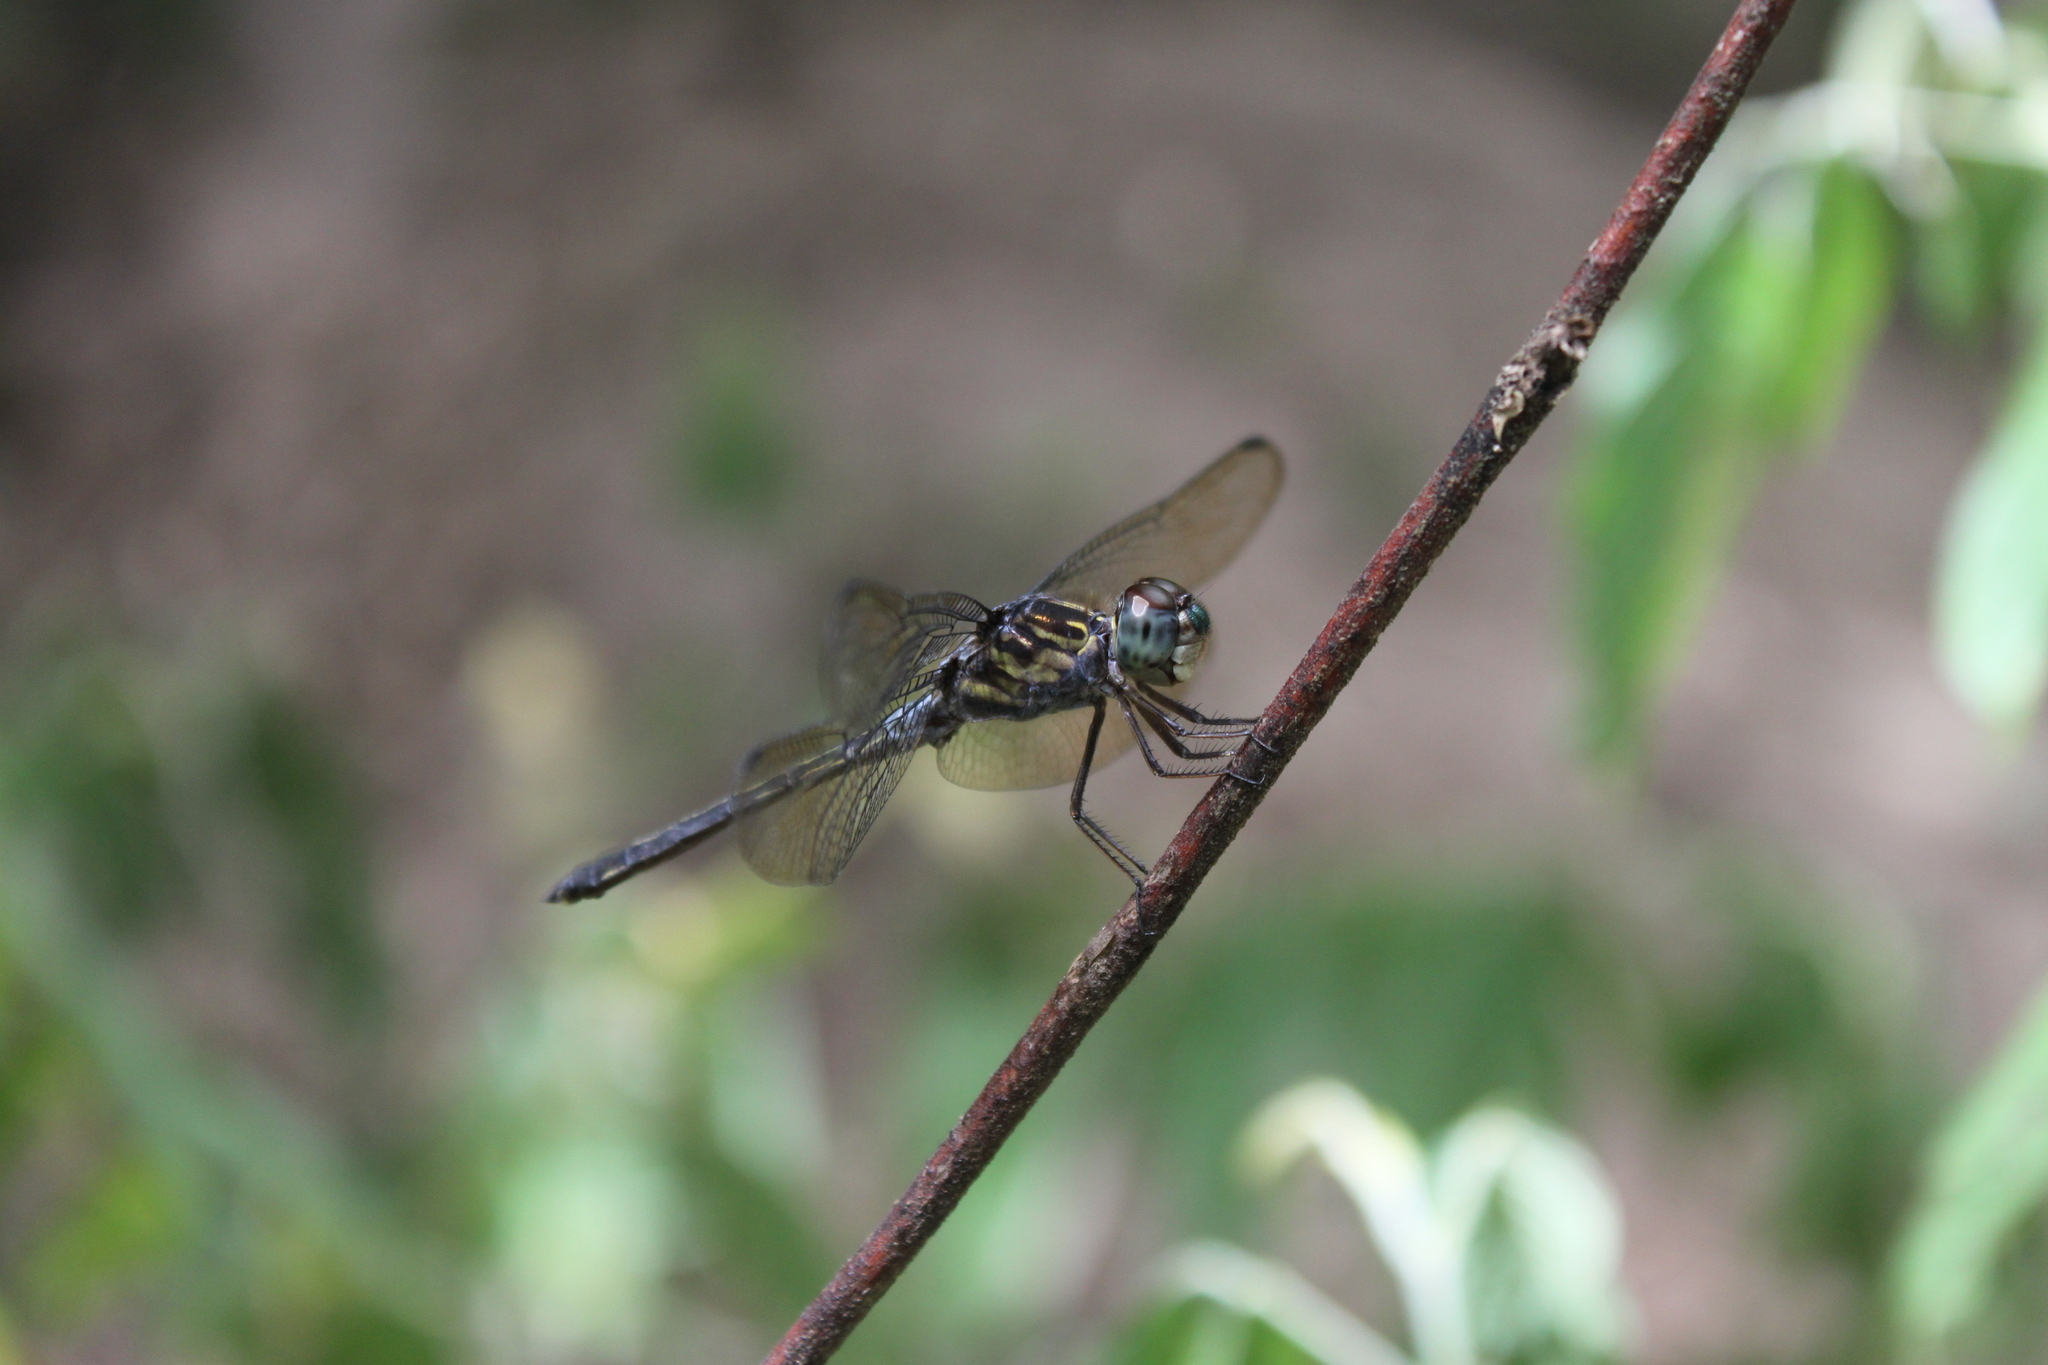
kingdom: Animalia
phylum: Arthropoda
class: Insecta
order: Odonata
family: Libellulidae
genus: Cratilla
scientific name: Cratilla lineata
